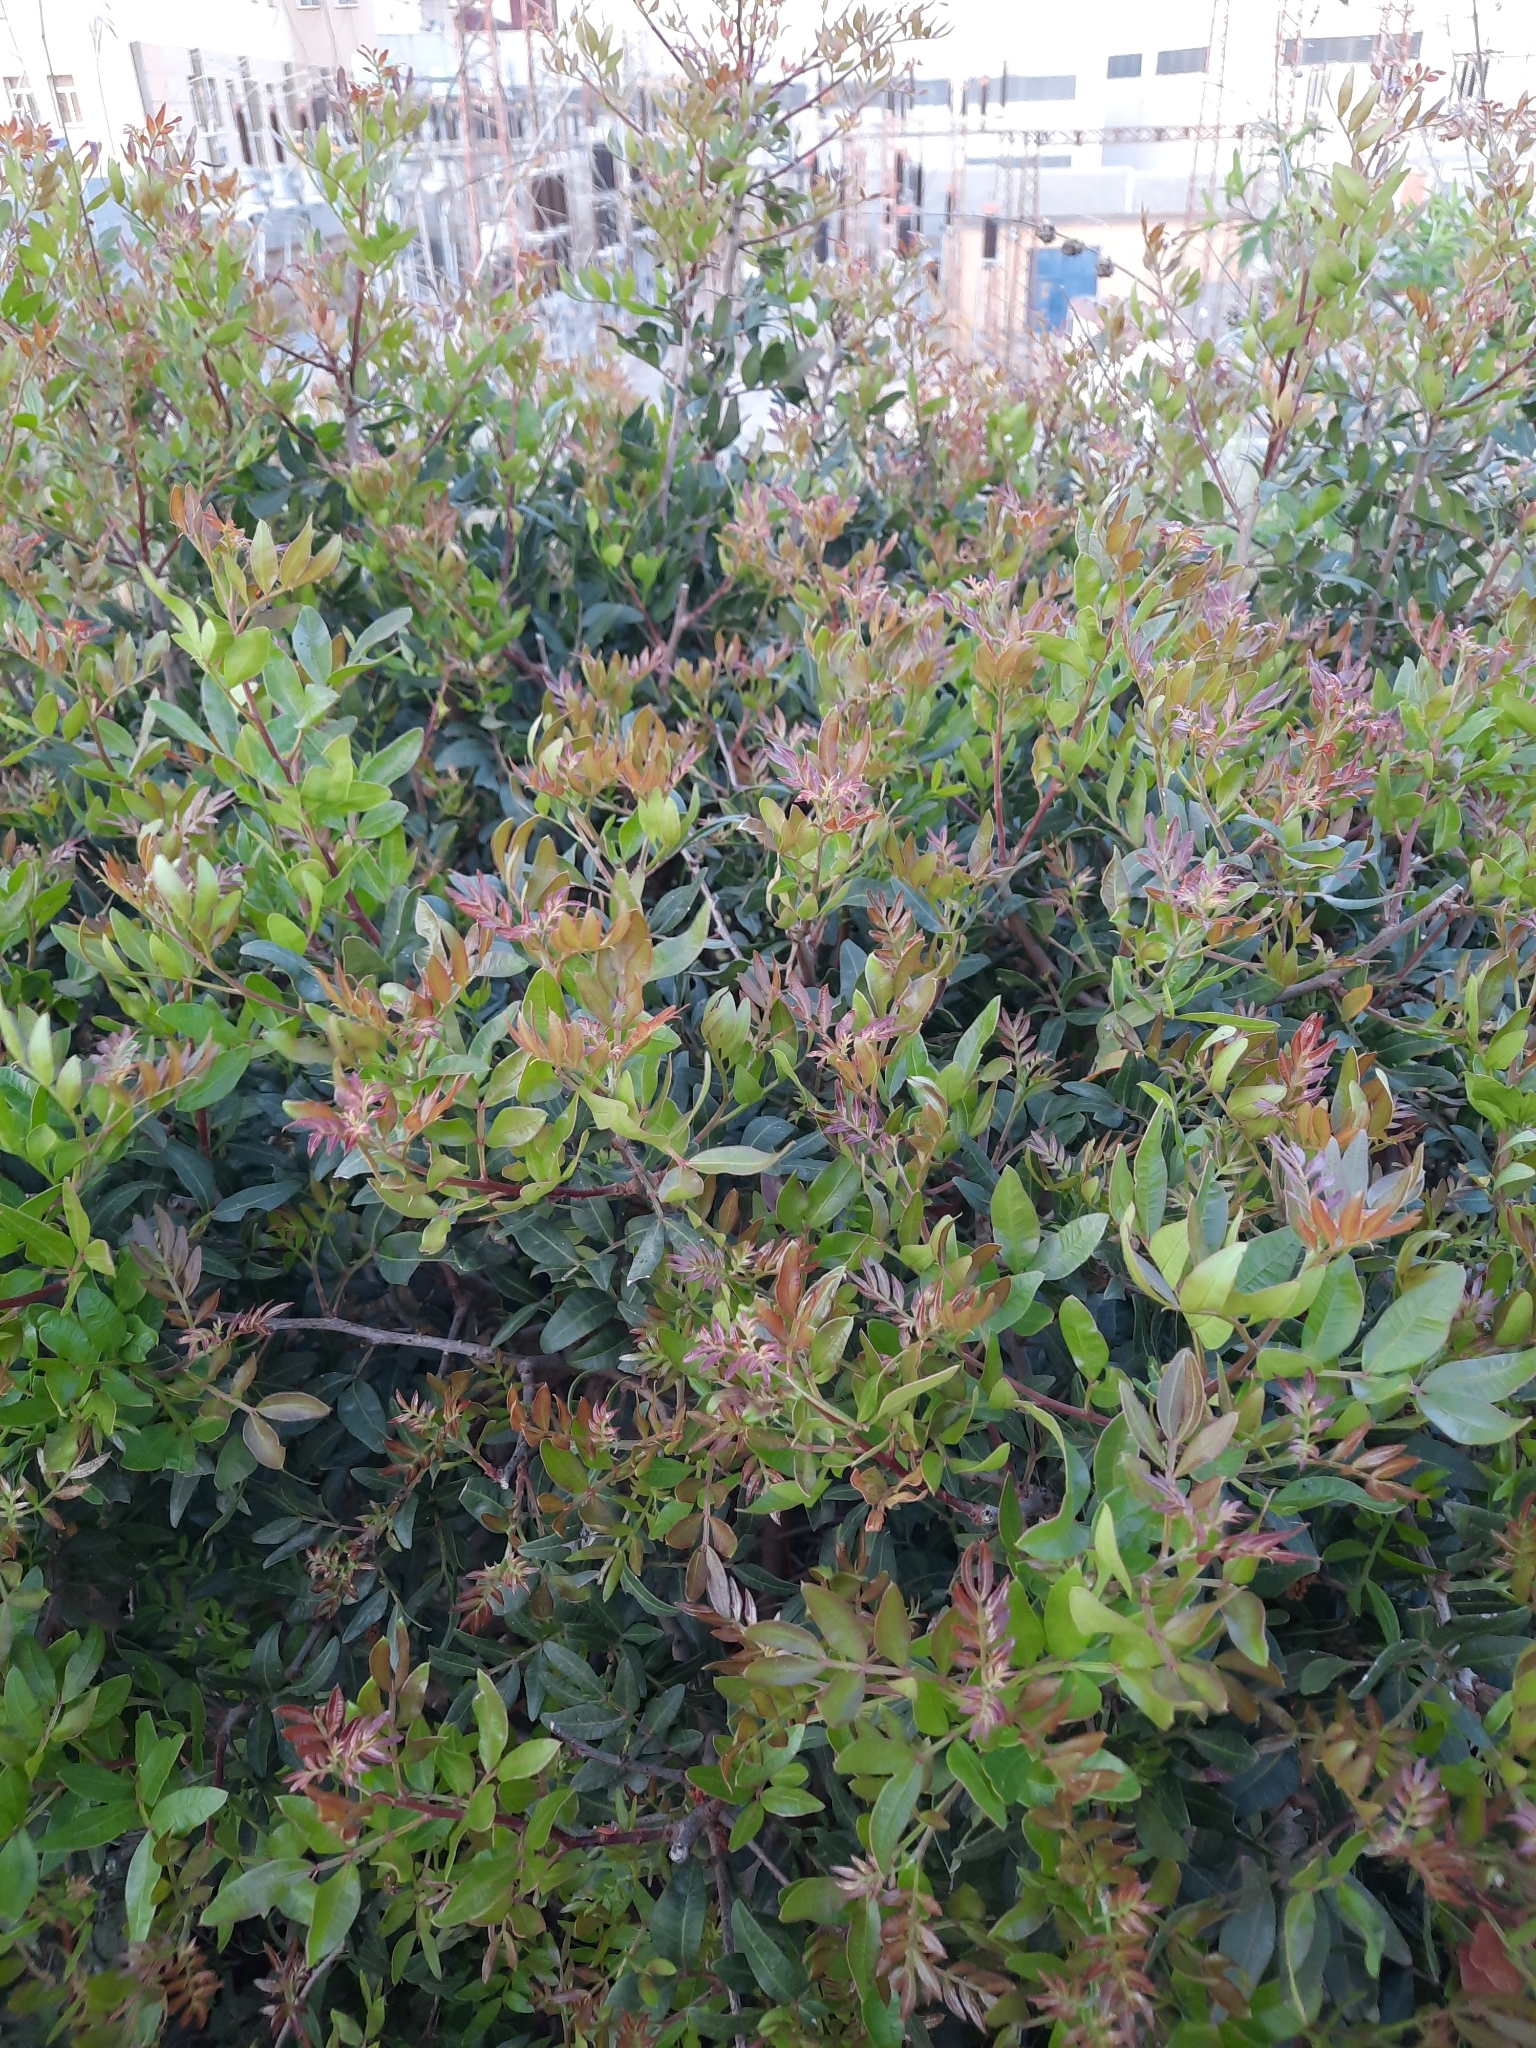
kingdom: Plantae
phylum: Tracheophyta
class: Magnoliopsida
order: Sapindales
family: Anacardiaceae
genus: Pistacia
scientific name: Pistacia lentiscus
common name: Lentisk
